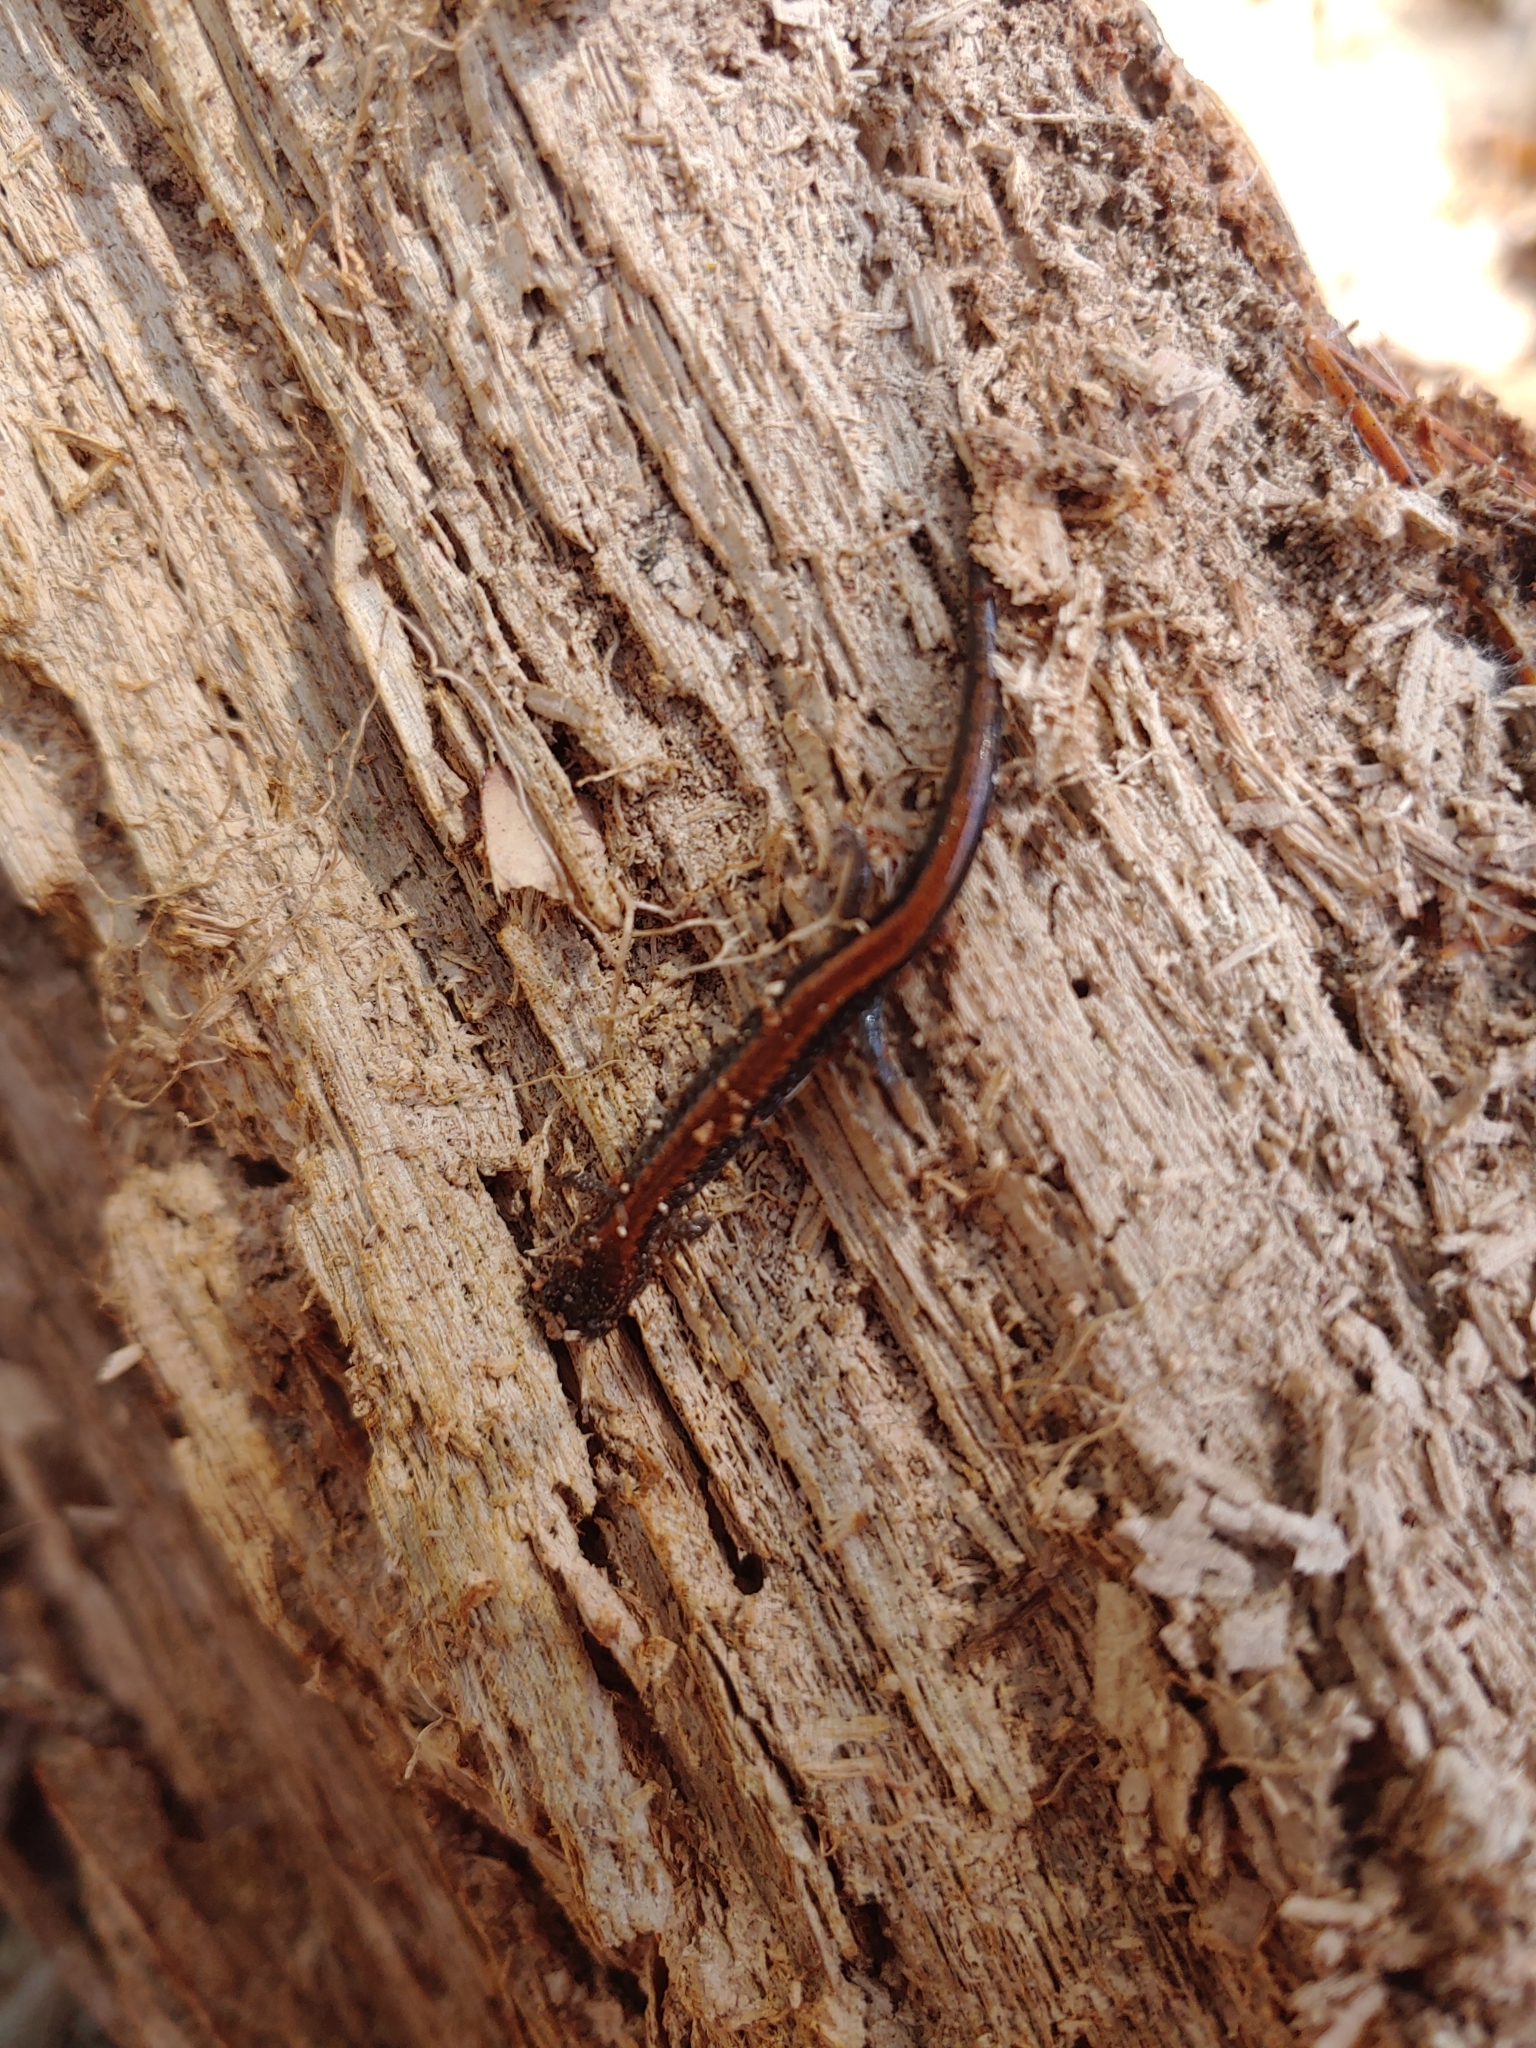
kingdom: Animalia
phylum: Chordata
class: Amphibia
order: Caudata
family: Plethodontidae
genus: Plethodon
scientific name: Plethodon cinereus
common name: Redback salamander
